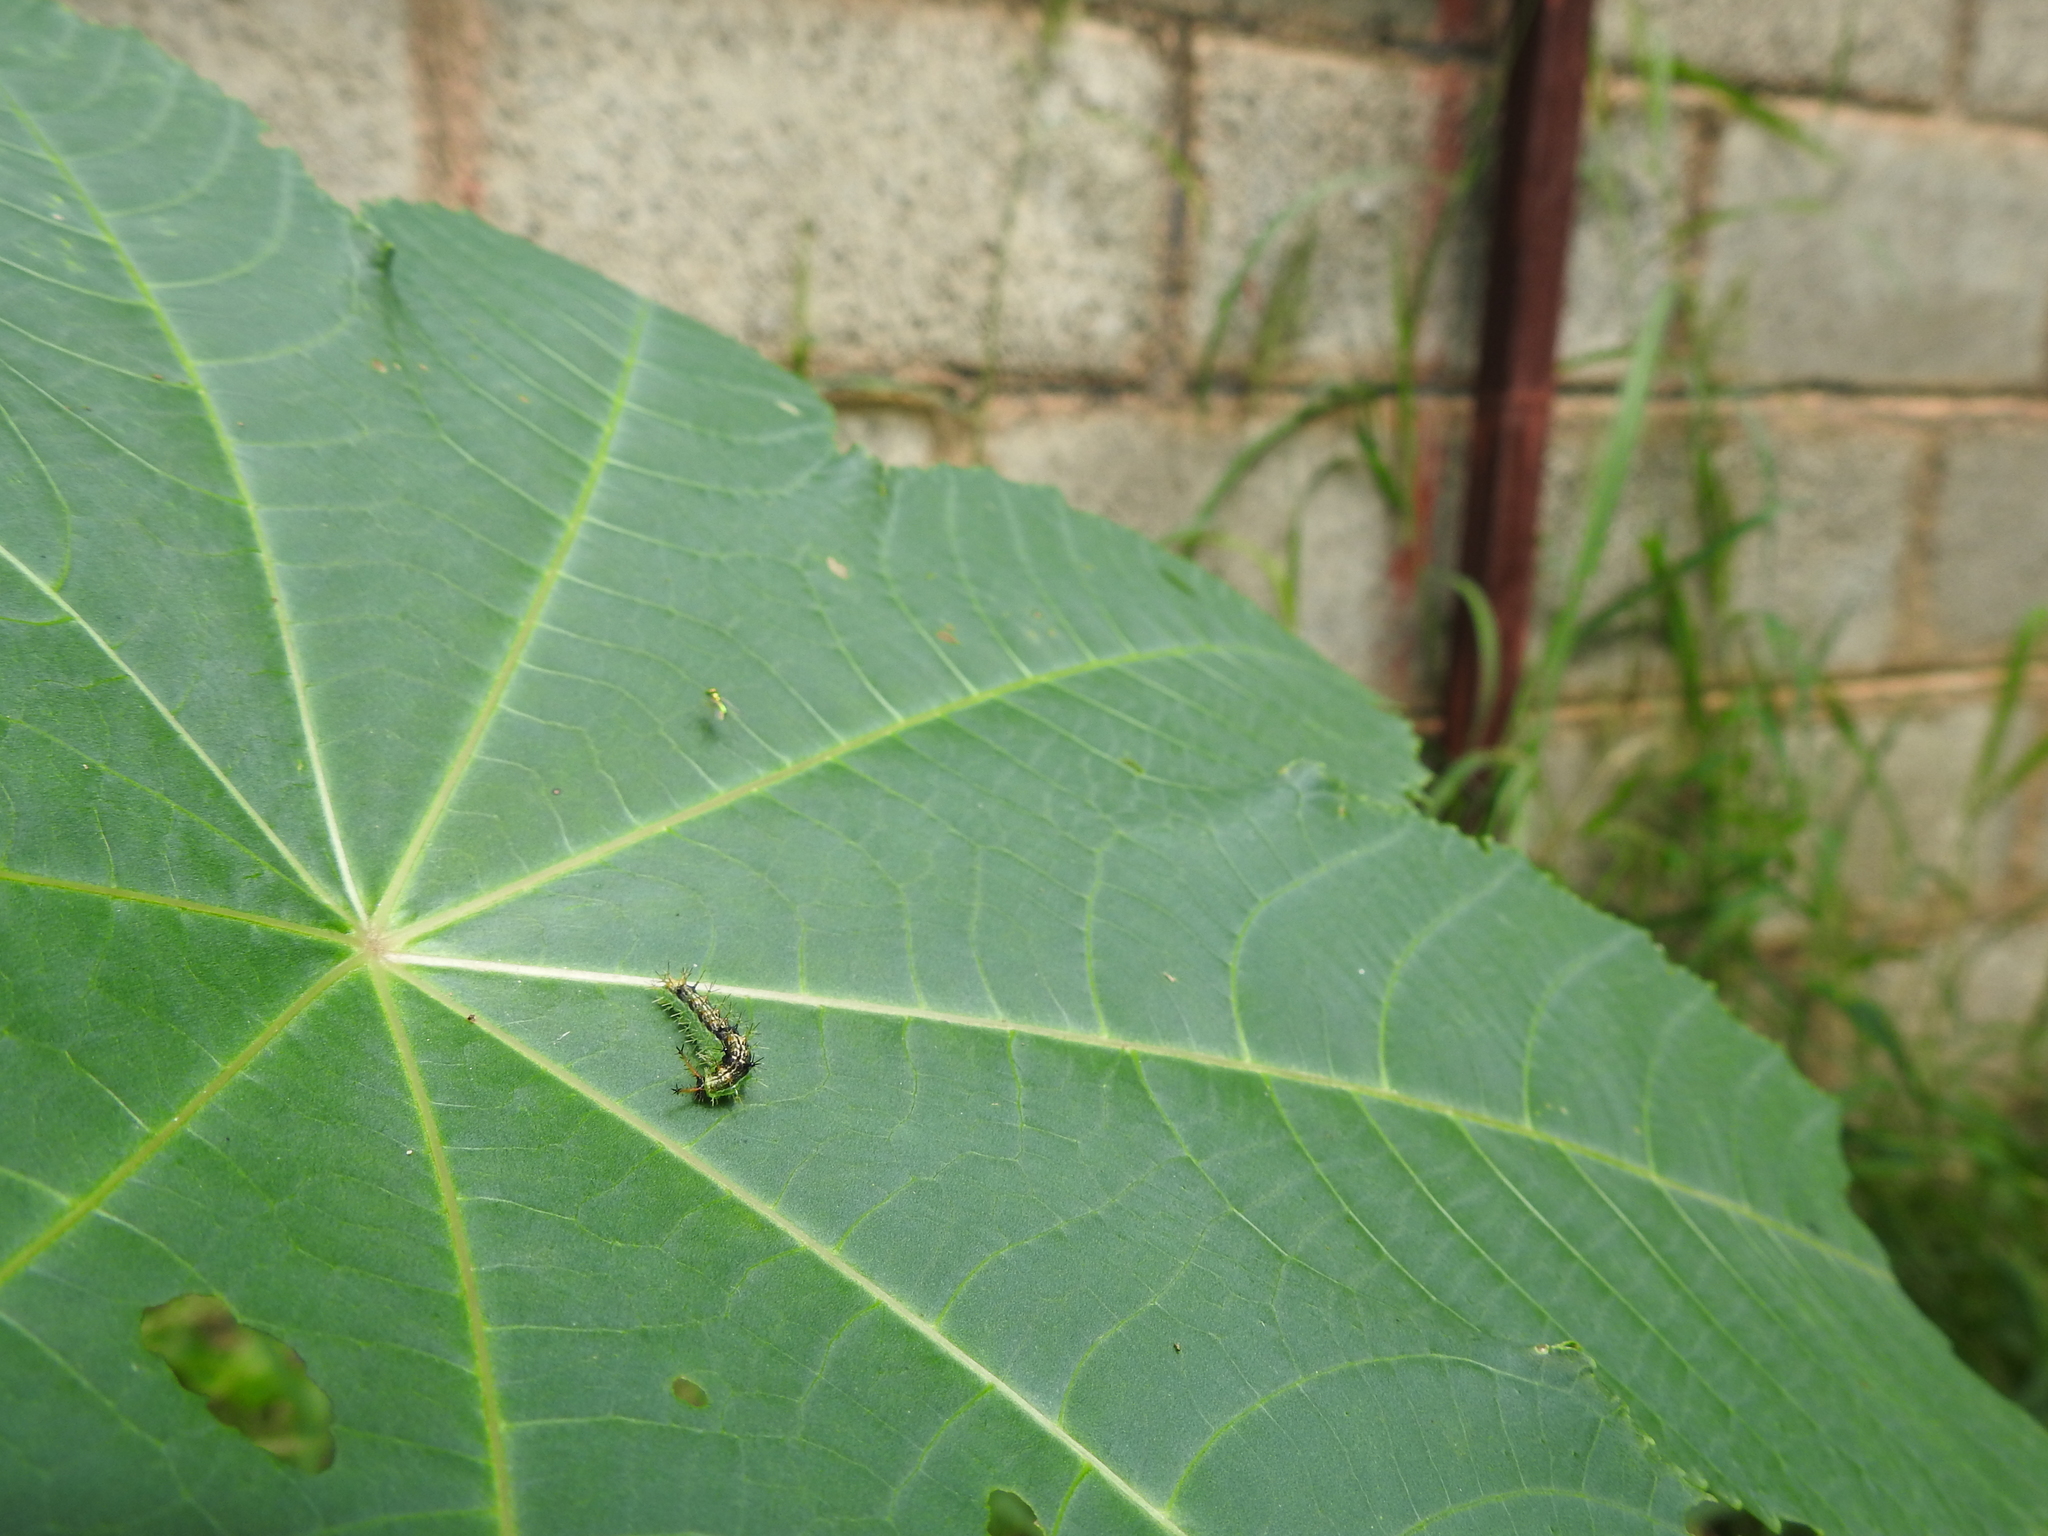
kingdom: Animalia
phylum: Arthropoda
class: Insecta
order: Lepidoptera
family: Nymphalidae
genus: Ariadne
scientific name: Ariadne merione
